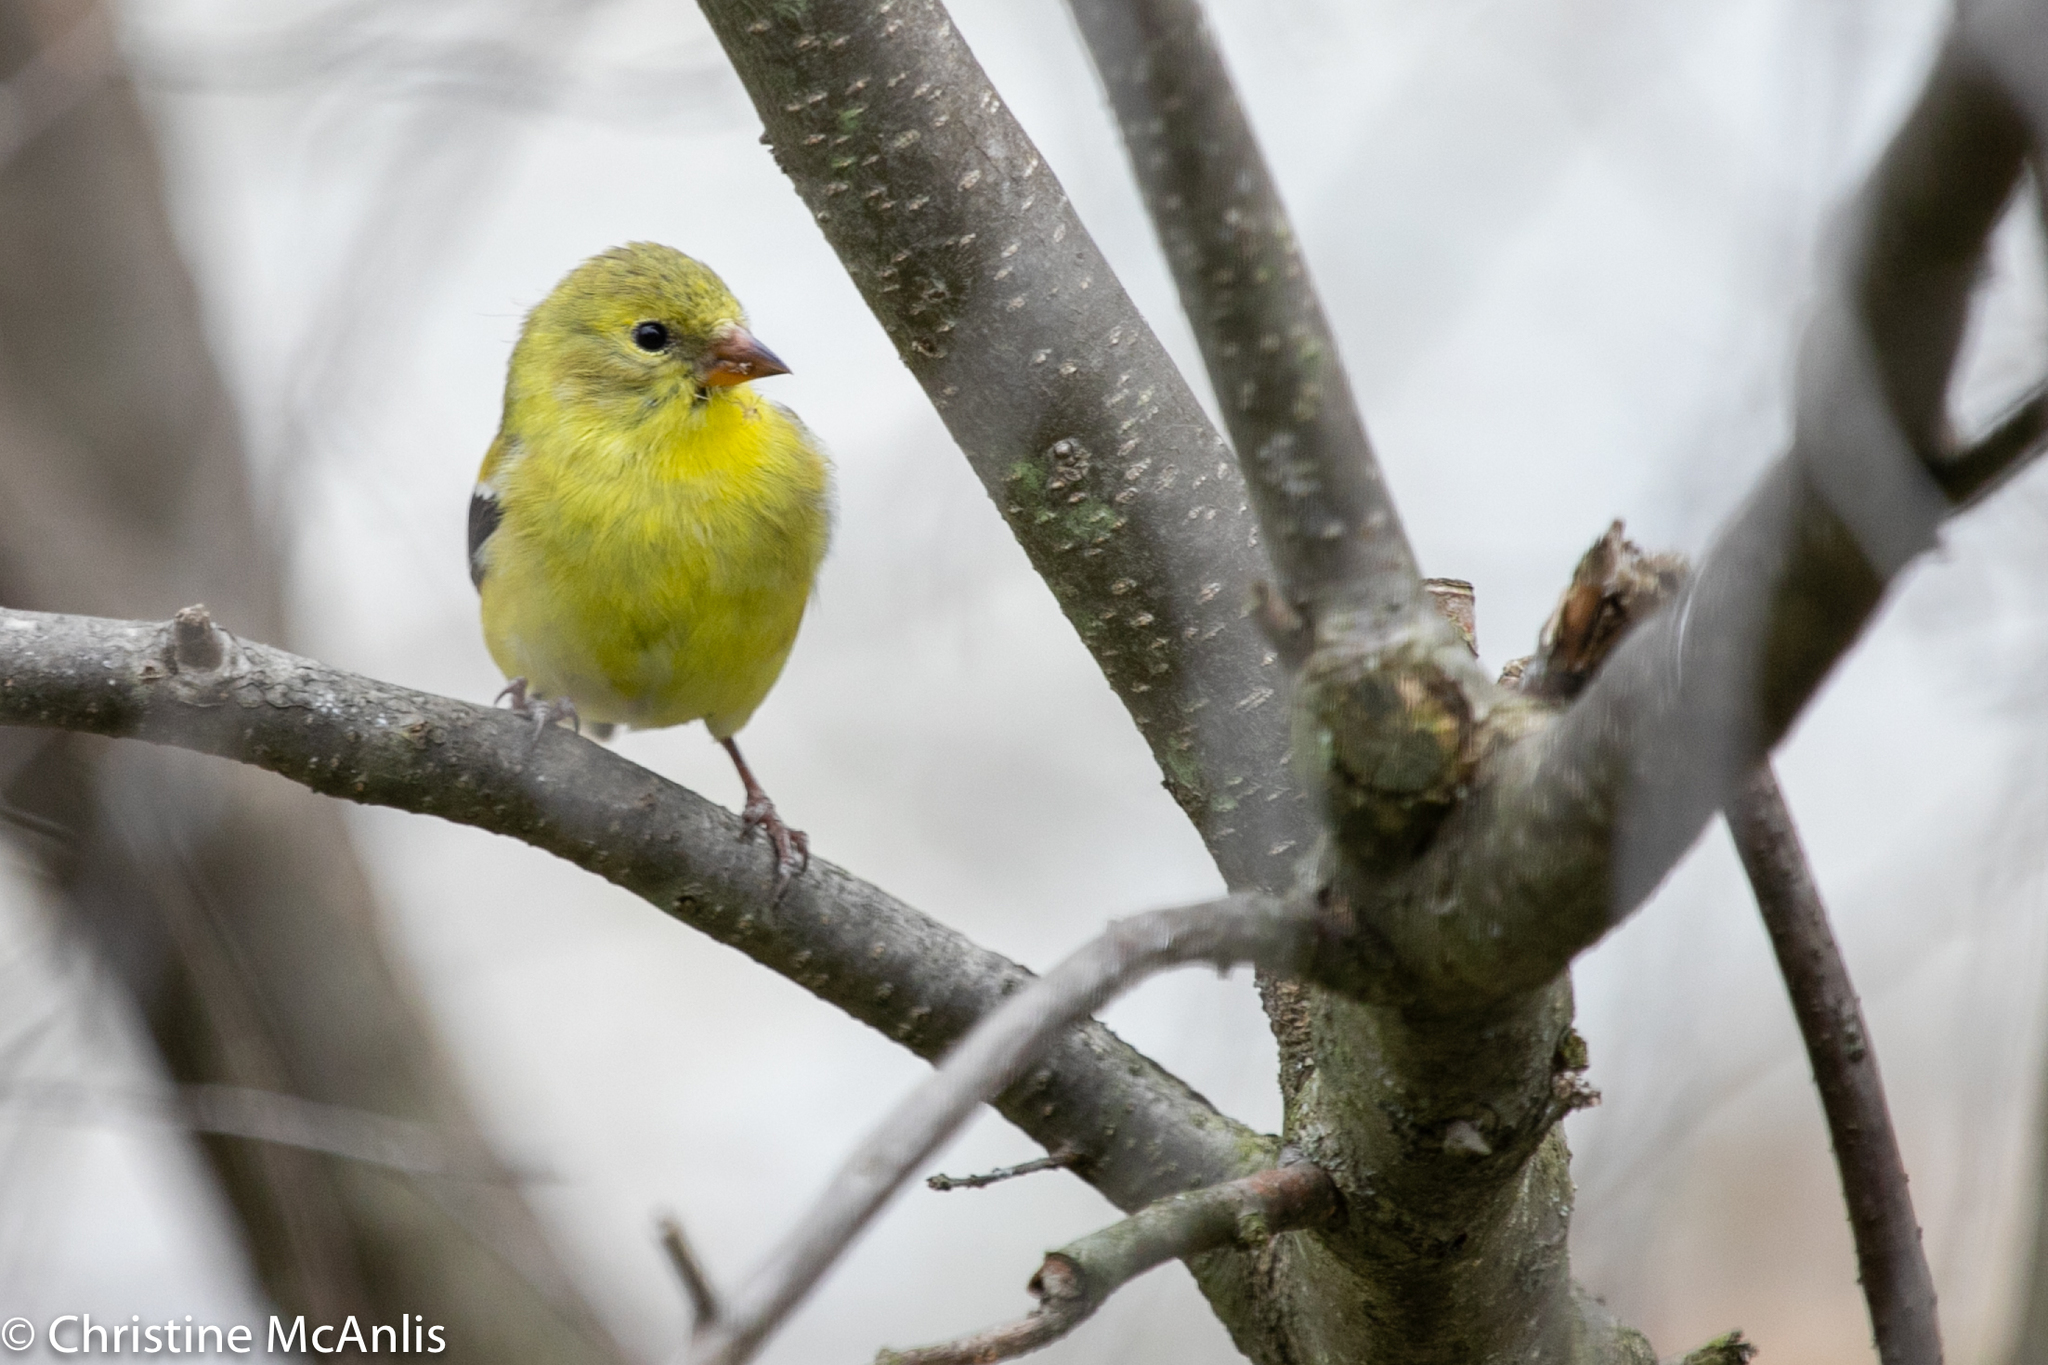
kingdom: Animalia
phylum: Chordata
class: Aves
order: Passeriformes
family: Fringillidae
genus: Spinus
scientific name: Spinus tristis
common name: American goldfinch
